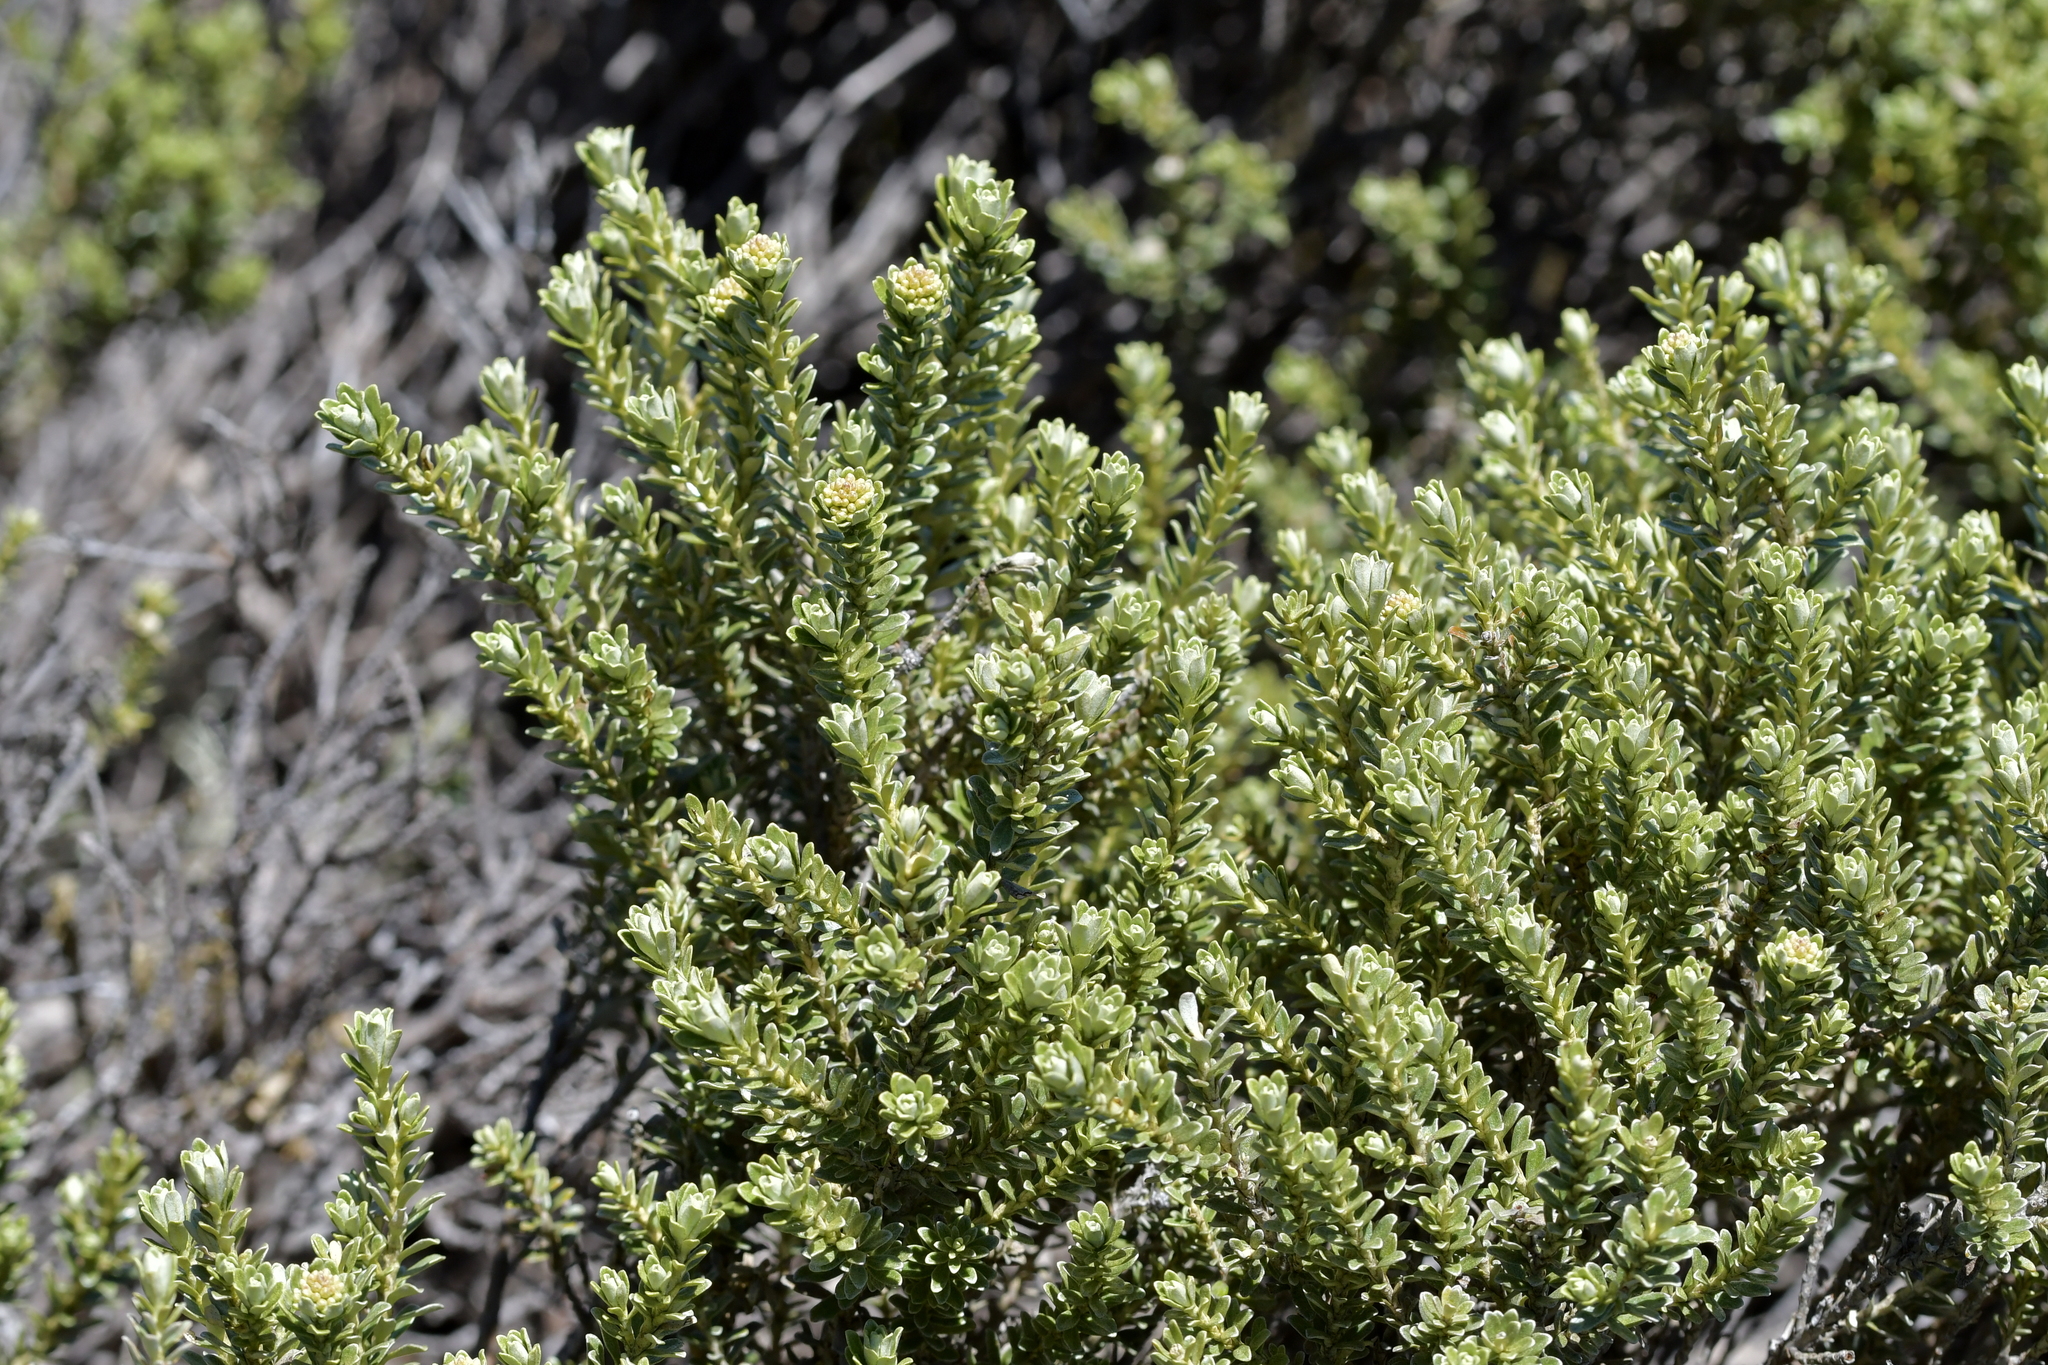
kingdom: Plantae
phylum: Tracheophyta
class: Magnoliopsida
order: Asterales
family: Asteraceae
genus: Olearia
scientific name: Olearia nummularifolia
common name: Sticky daisybush
